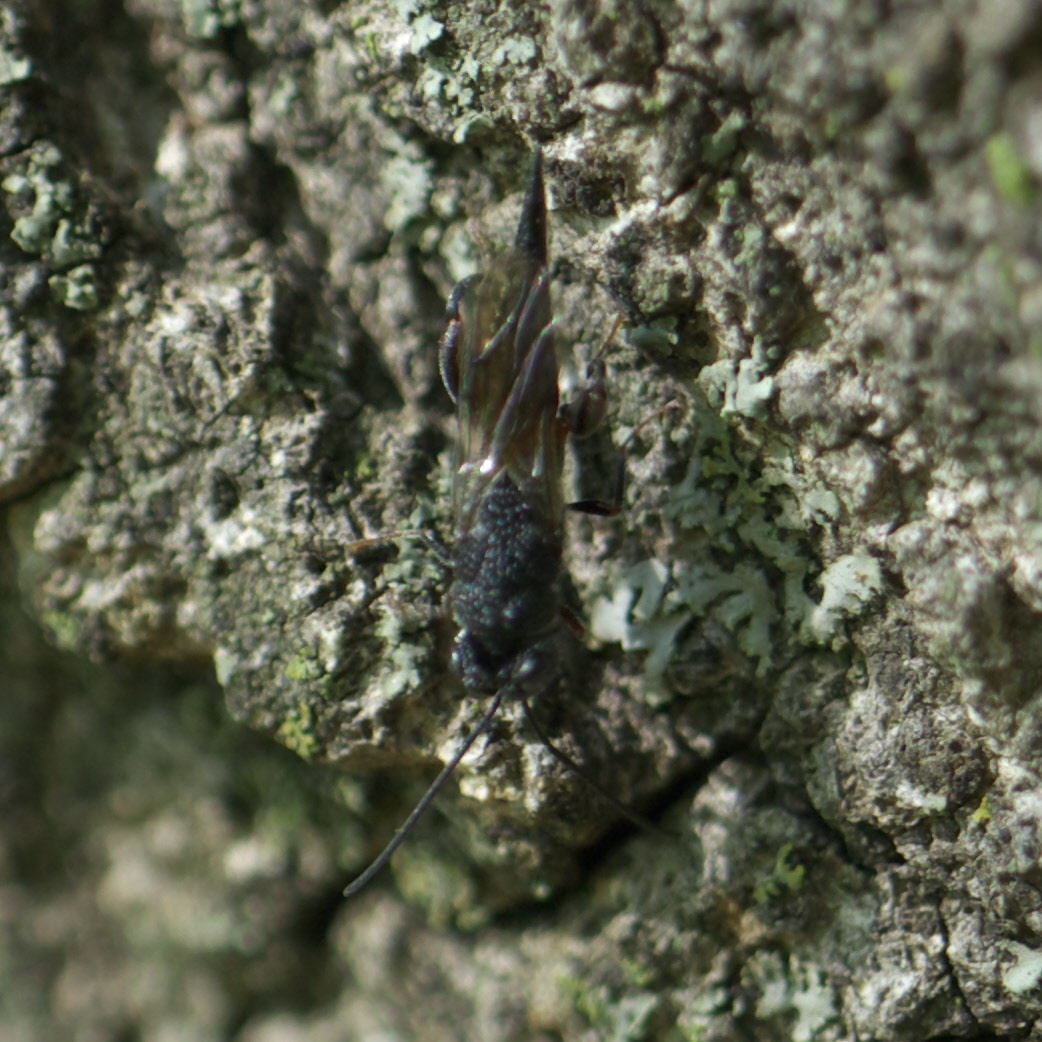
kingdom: Animalia
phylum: Arthropoda
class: Insecta
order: Hymenoptera
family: Chalcididae
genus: Phasgonophora
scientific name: Phasgonophora sulcata
